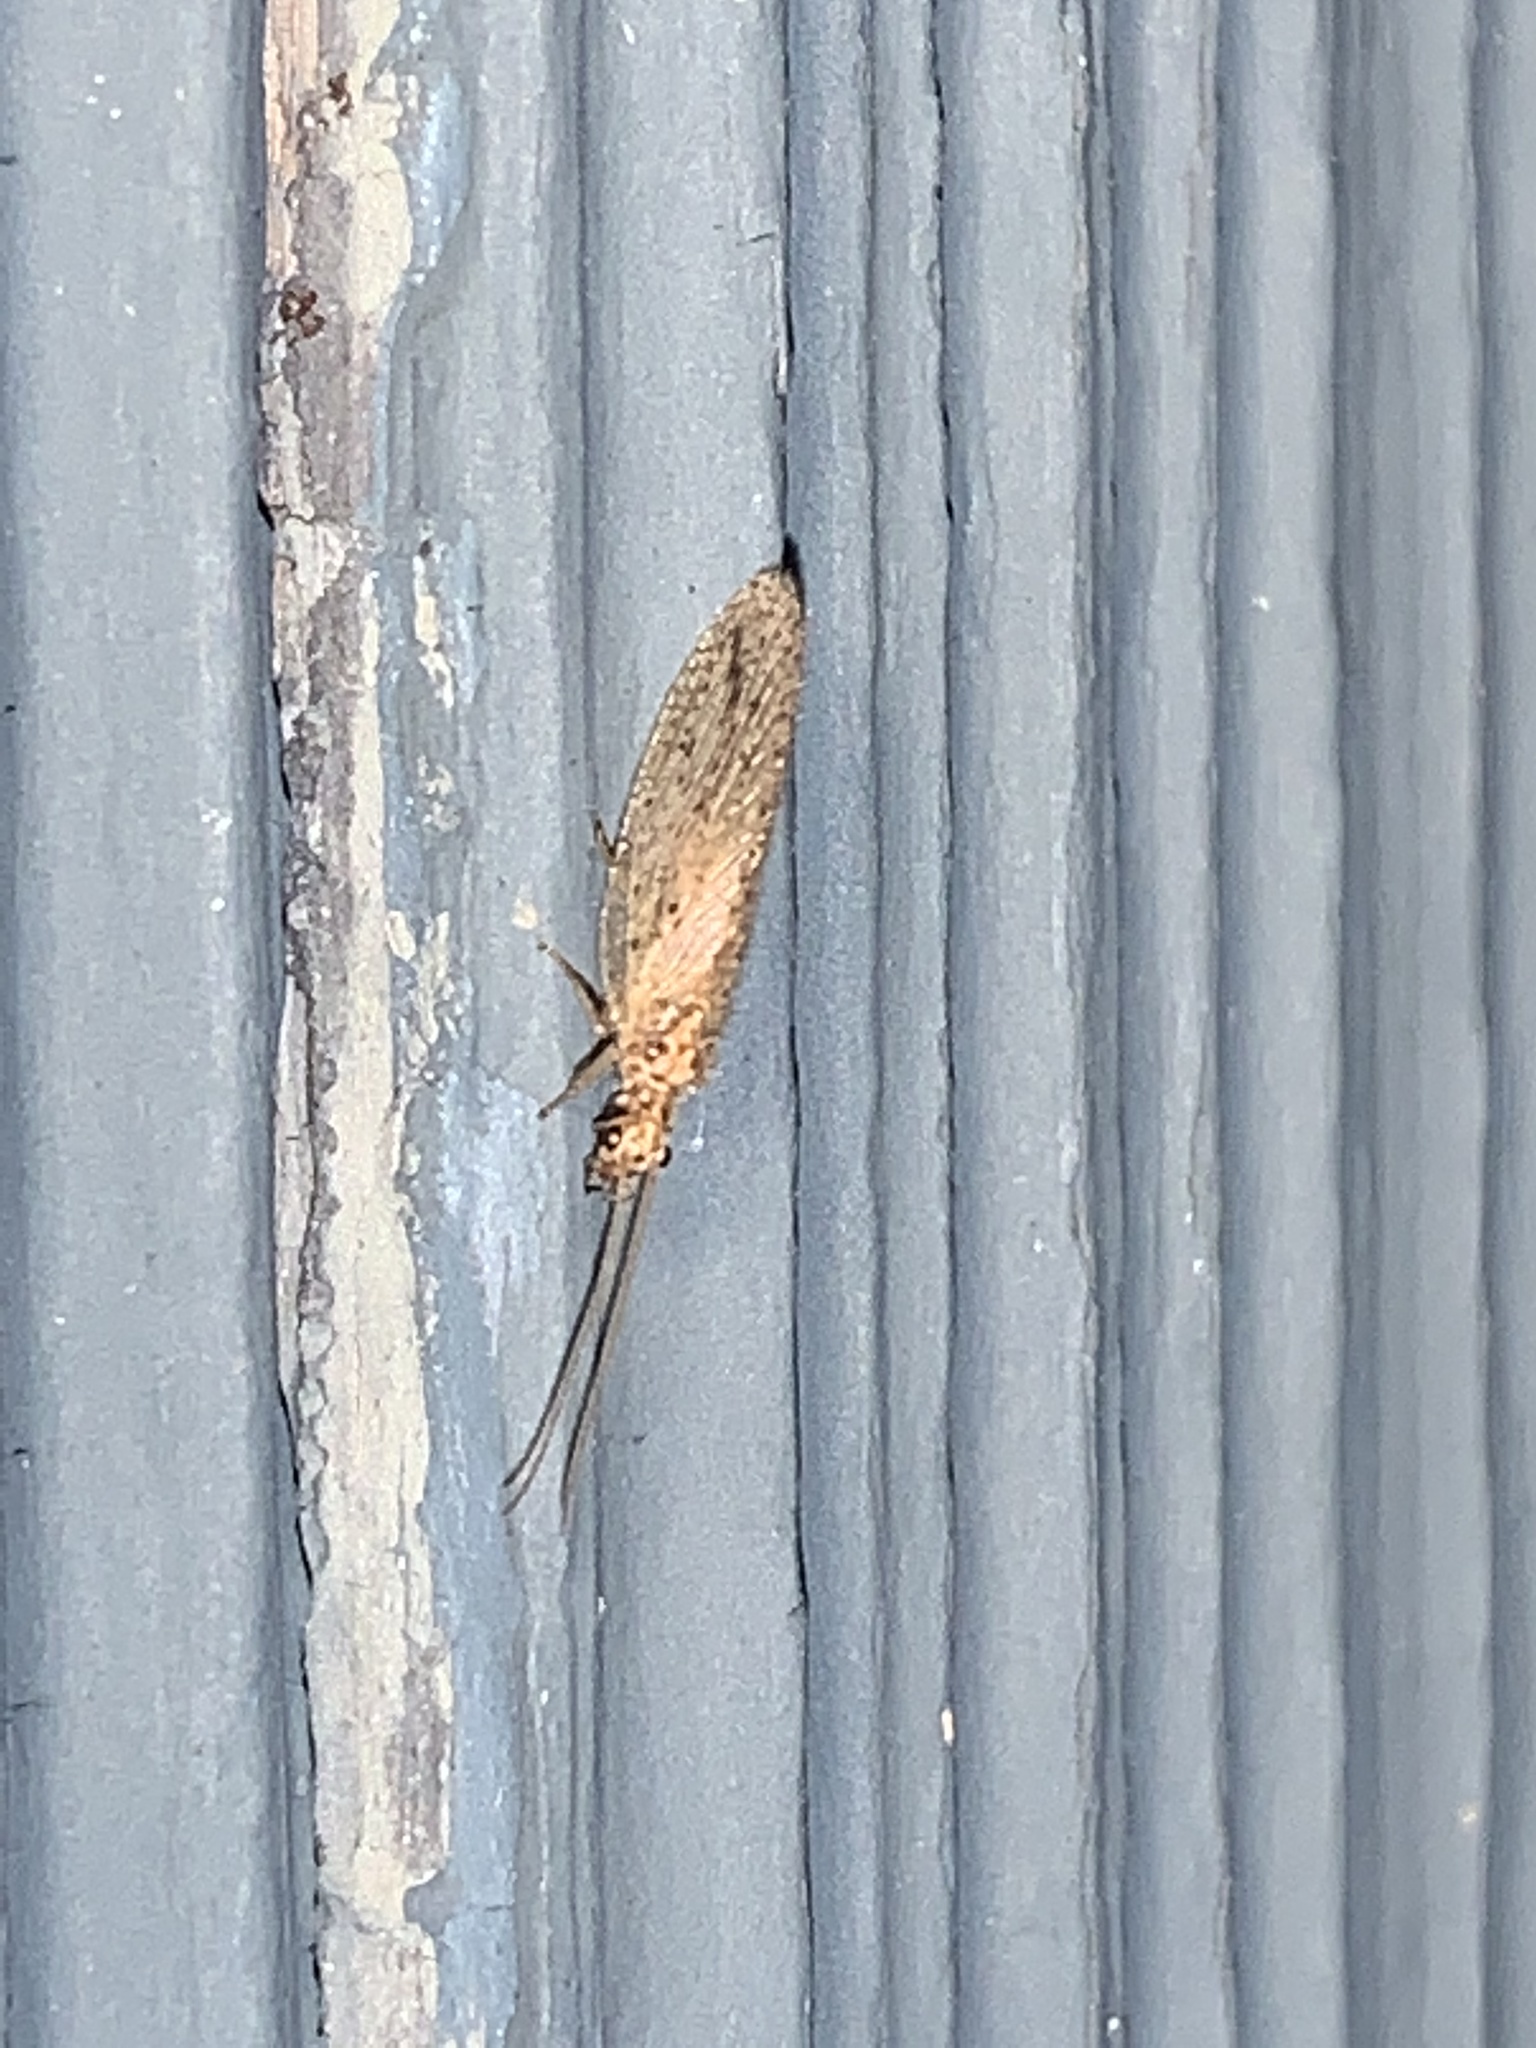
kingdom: Animalia
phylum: Arthropoda
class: Insecta
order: Neuroptera
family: Hemerobiidae
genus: Micromus
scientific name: Micromus subanticus
